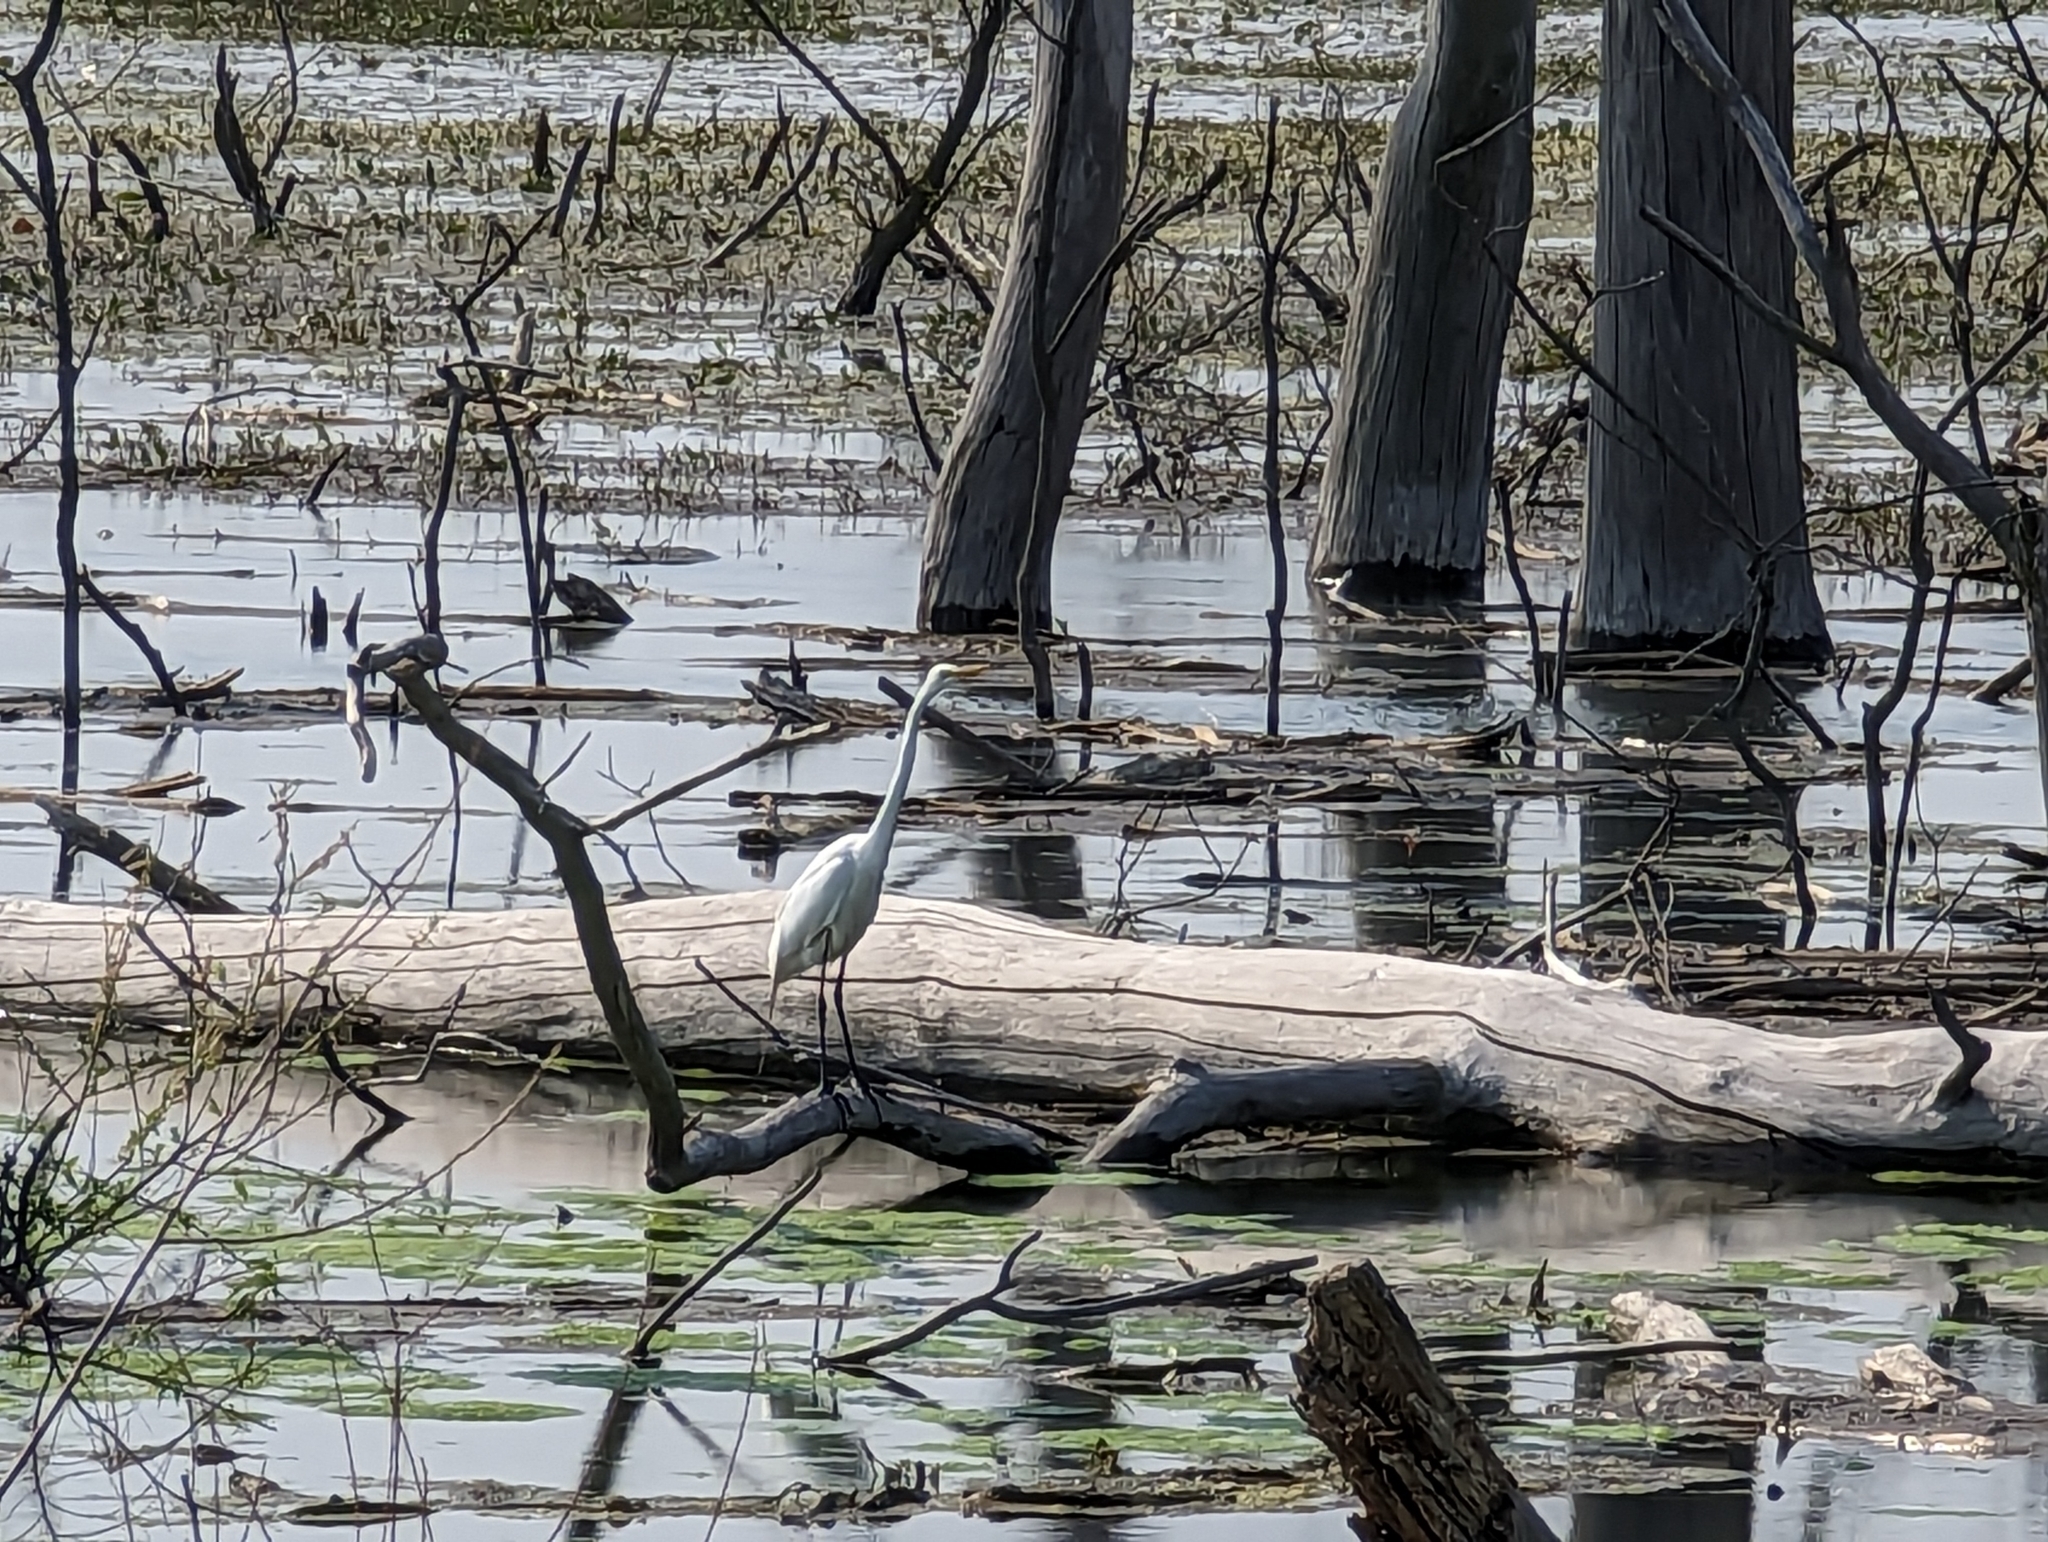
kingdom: Animalia
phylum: Chordata
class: Aves
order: Pelecaniformes
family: Ardeidae
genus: Ardea
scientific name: Ardea alba
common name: Great egret
